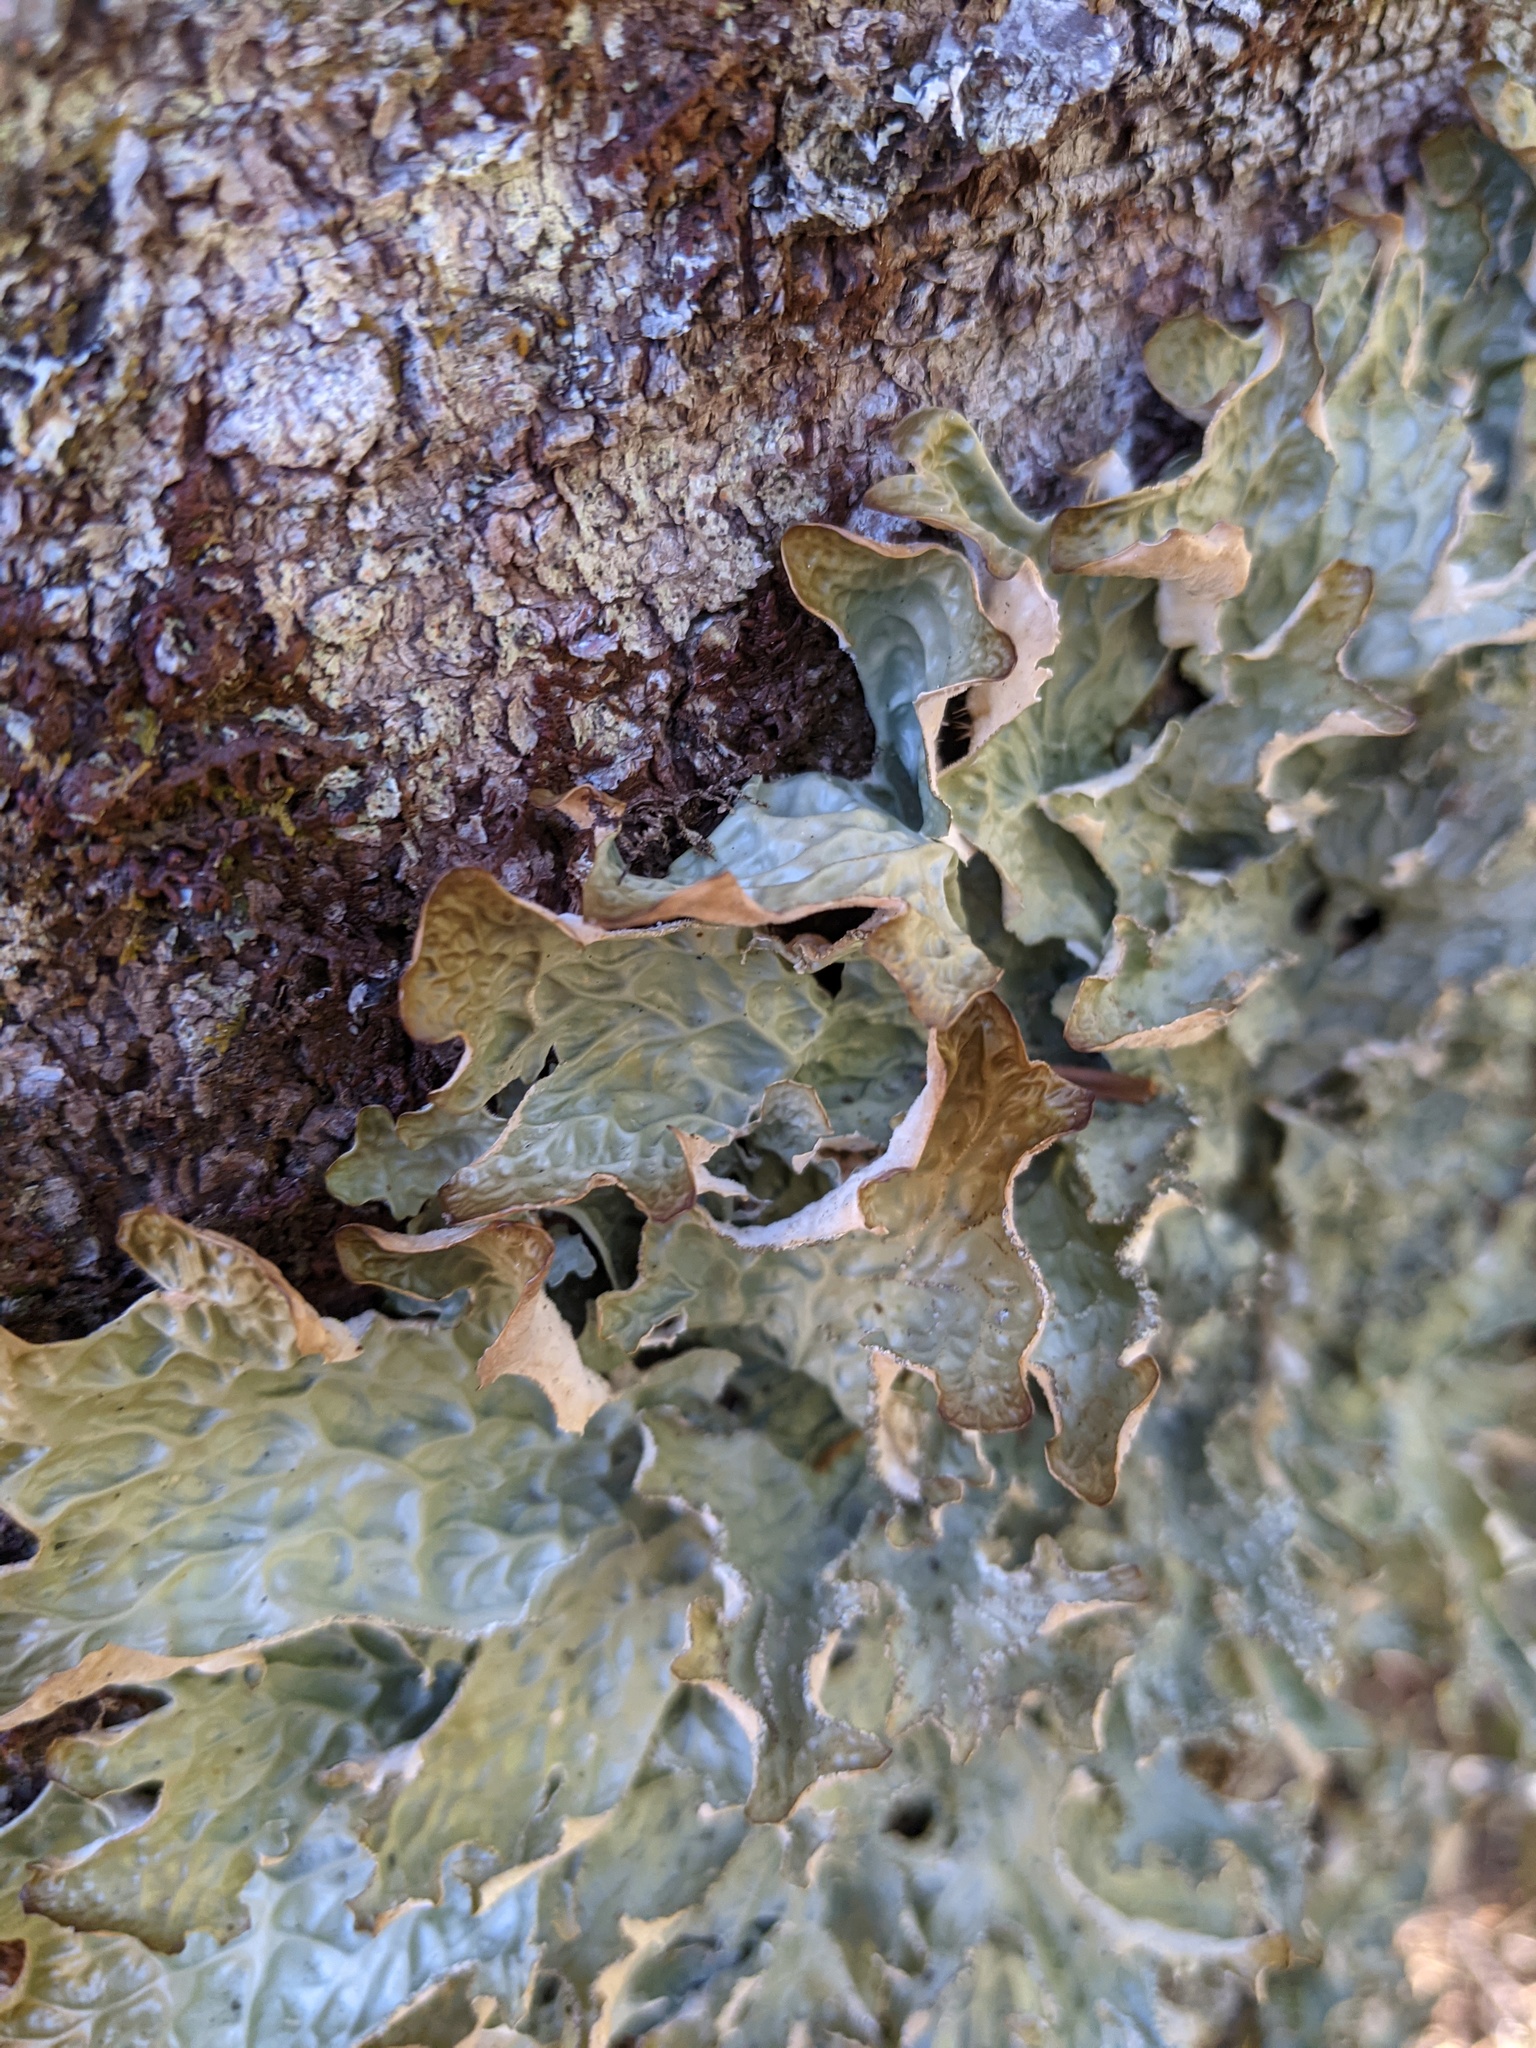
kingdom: Fungi
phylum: Ascomycota
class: Lecanoromycetes
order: Peltigerales
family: Lobariaceae
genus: Lobaria
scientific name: Lobaria pulmonaria
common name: Lungwort
